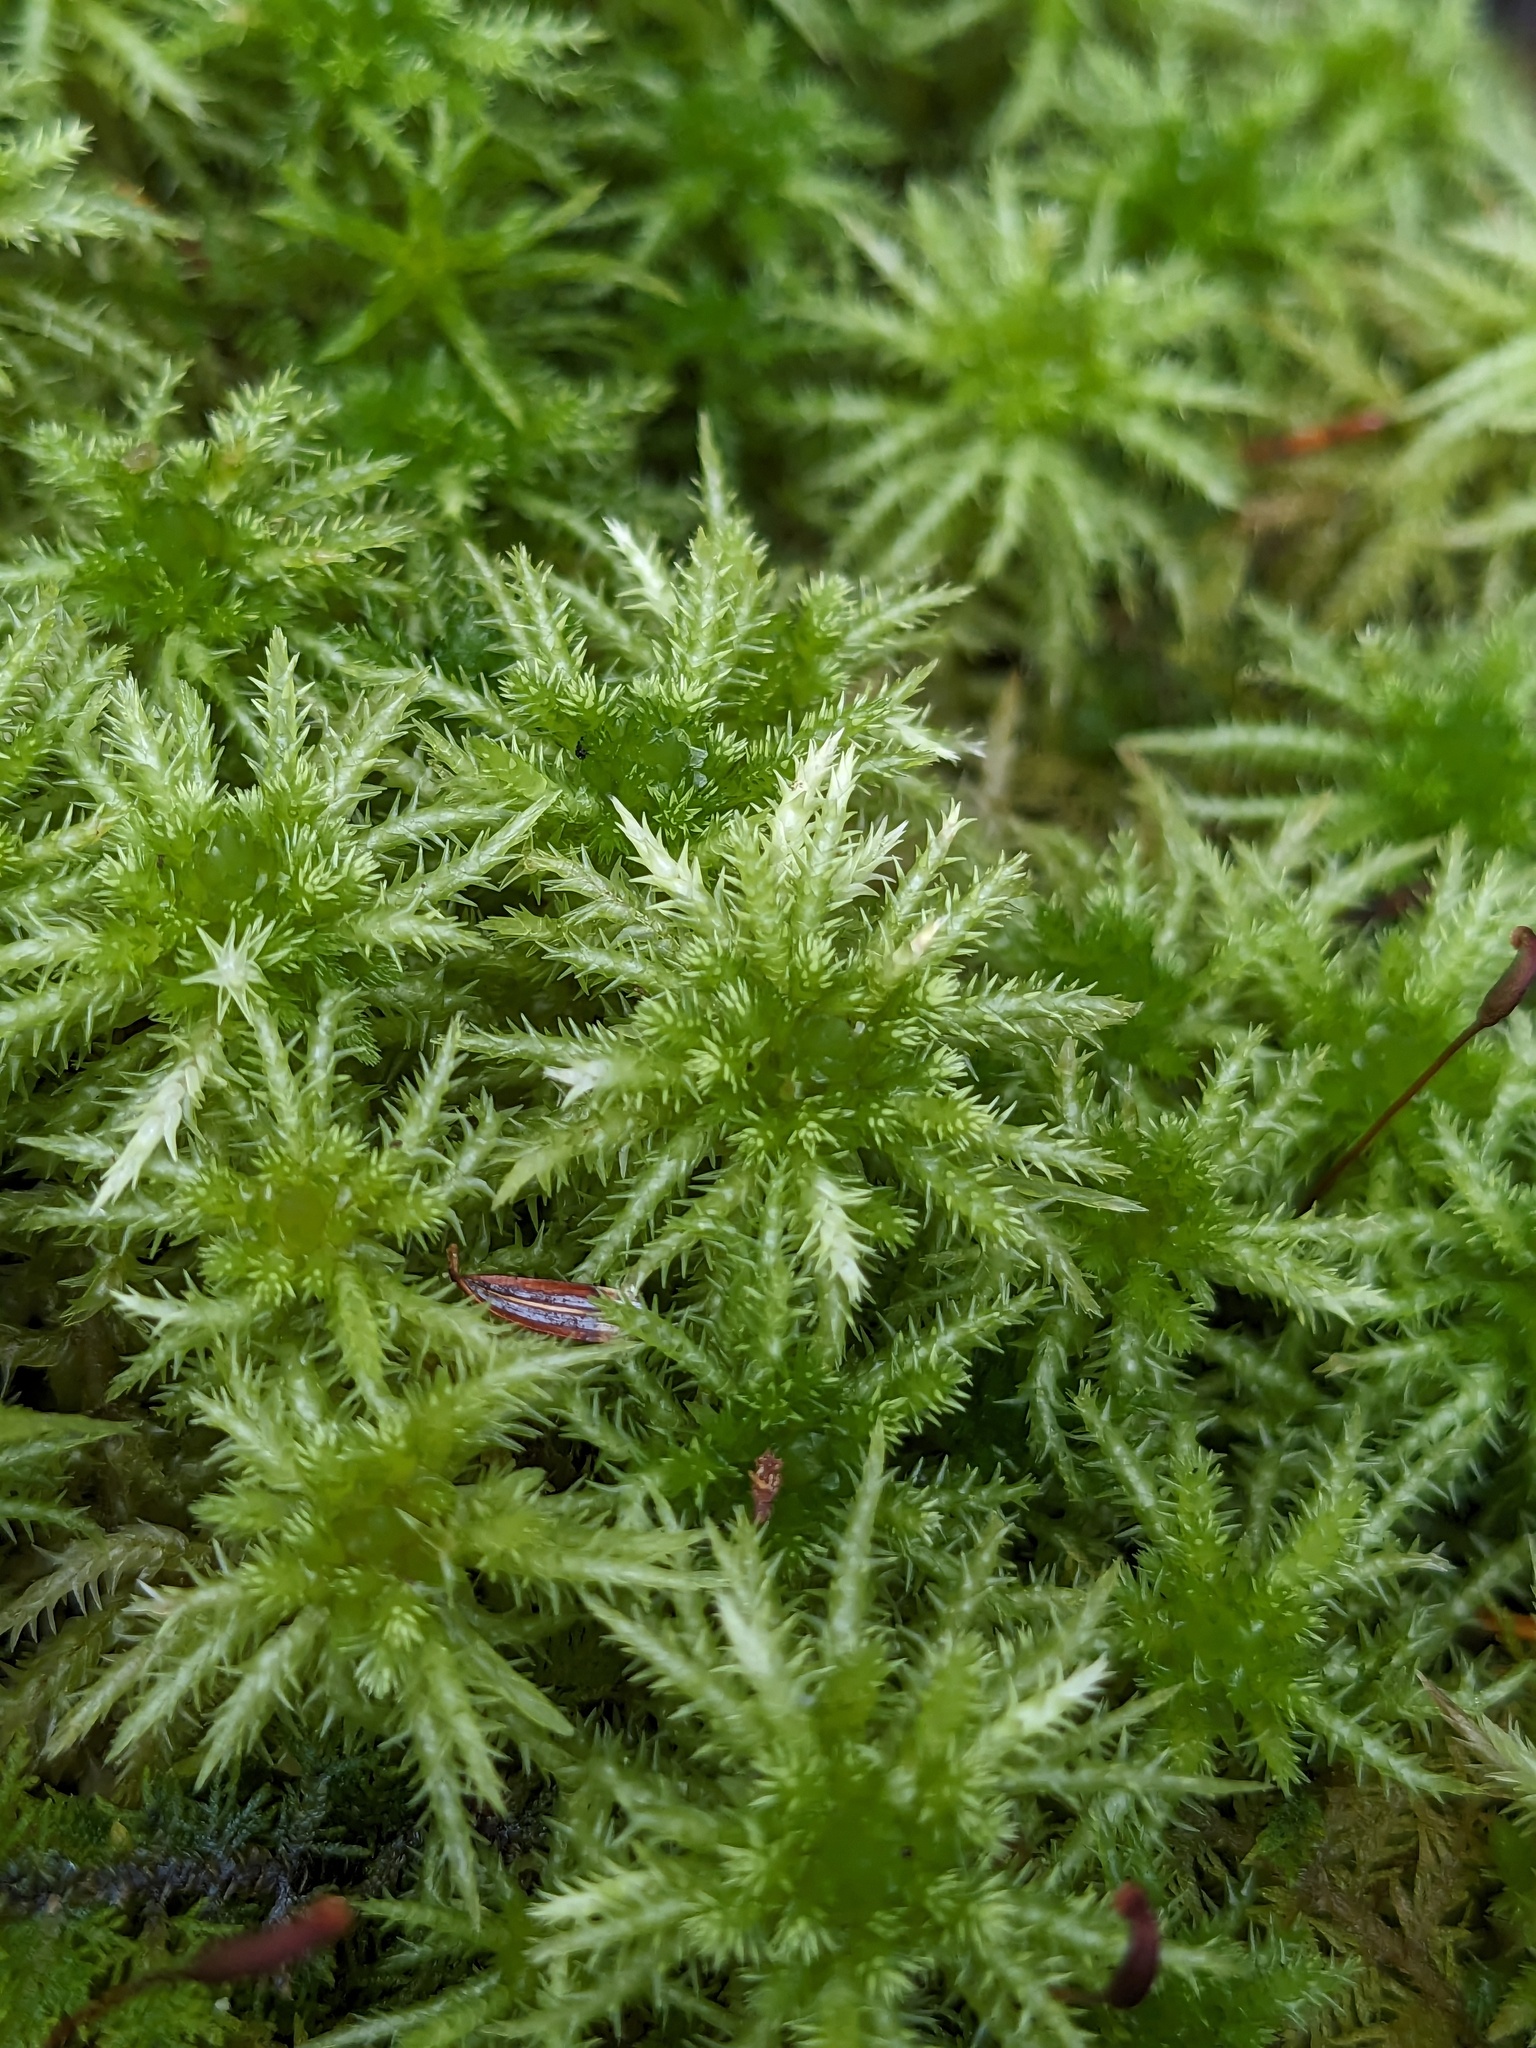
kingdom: Plantae
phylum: Bryophyta
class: Sphagnopsida
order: Sphagnales
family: Sphagnaceae
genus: Sphagnum
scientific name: Sphagnum squarrosum
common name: Shaggy peat moss
